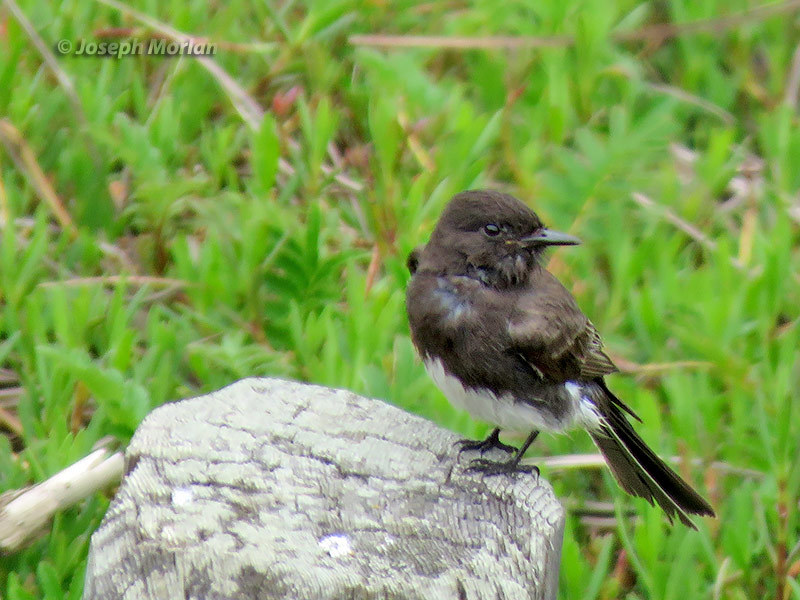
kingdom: Animalia
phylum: Chordata
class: Aves
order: Passeriformes
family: Tyrannidae
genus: Sayornis
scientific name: Sayornis nigricans
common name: Black phoebe
